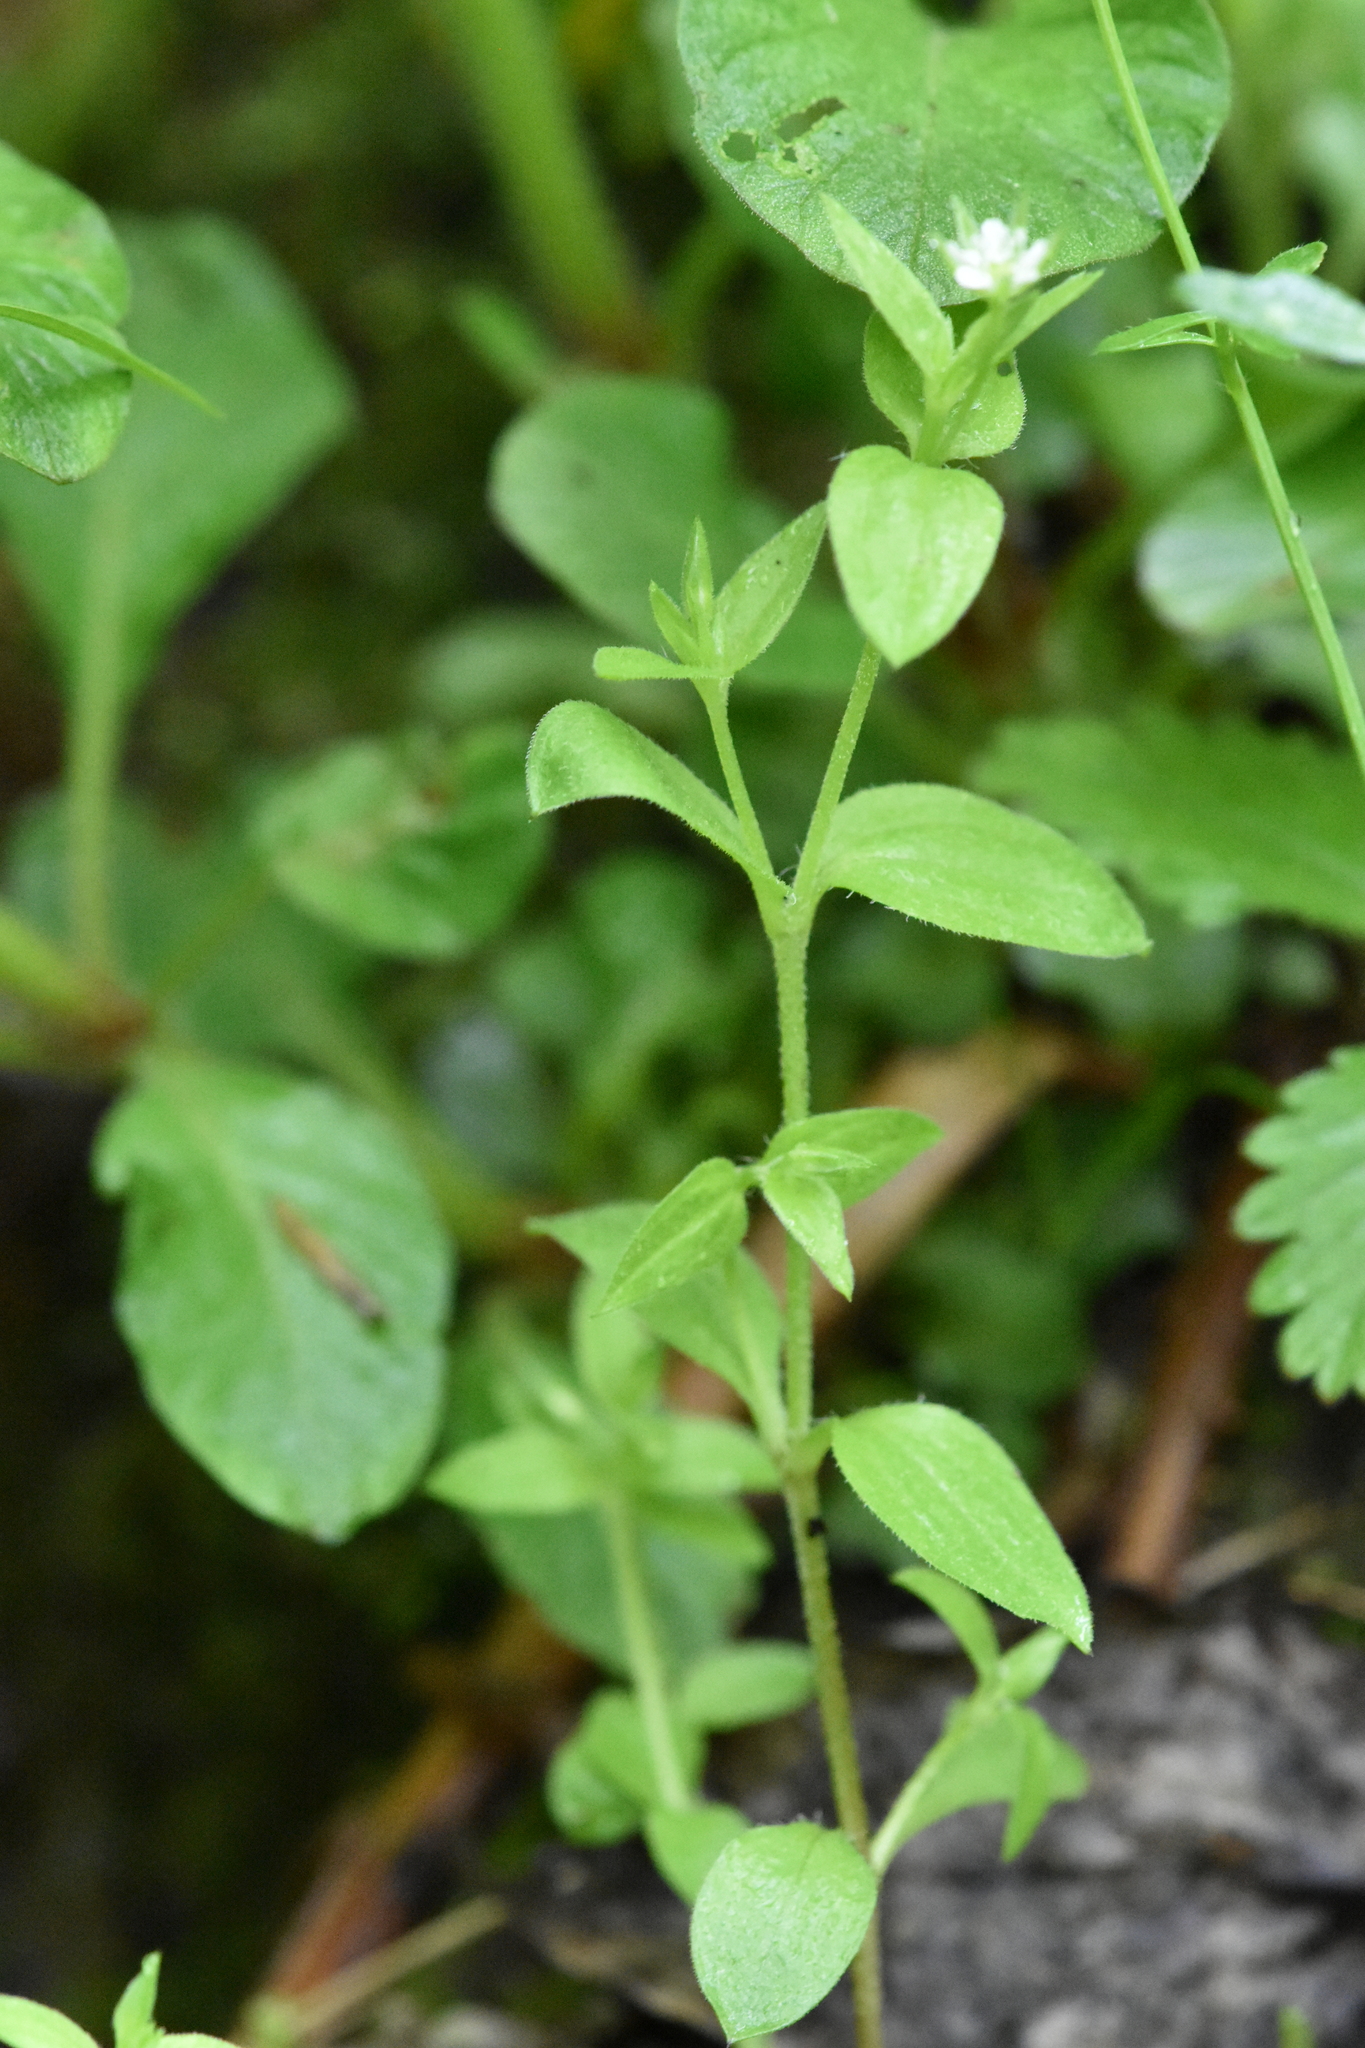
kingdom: Plantae
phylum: Tracheophyta
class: Magnoliopsida
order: Caryophyllales
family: Caryophyllaceae
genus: Moehringia
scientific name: Moehringia trinervia
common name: Three-nerved sandwort
